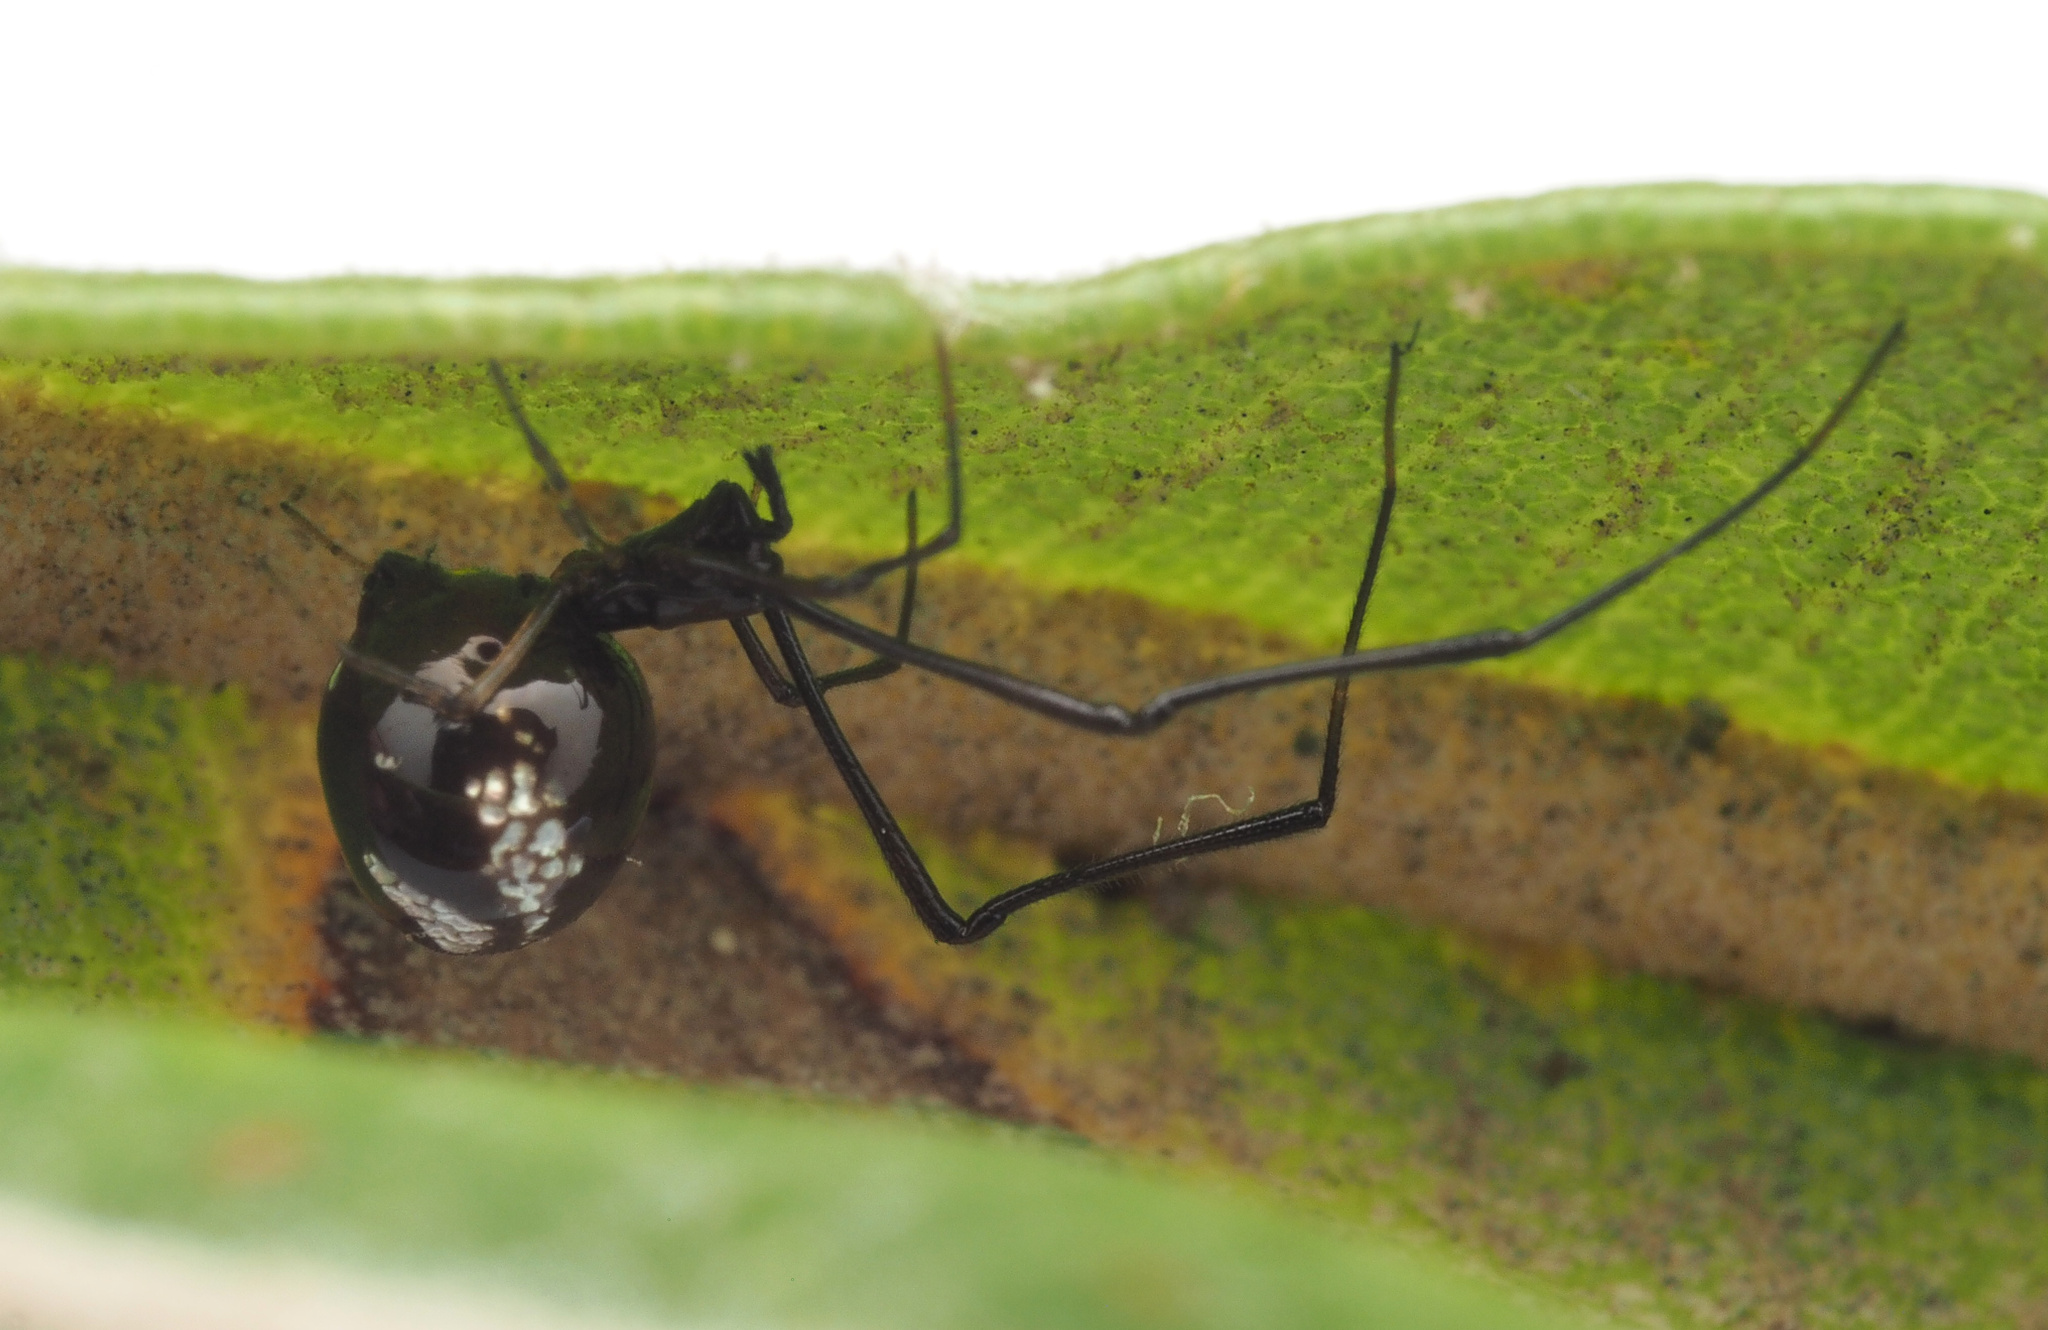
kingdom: Animalia
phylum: Arthropoda
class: Arachnida
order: Araneae
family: Theridiidae
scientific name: Theridiidae
